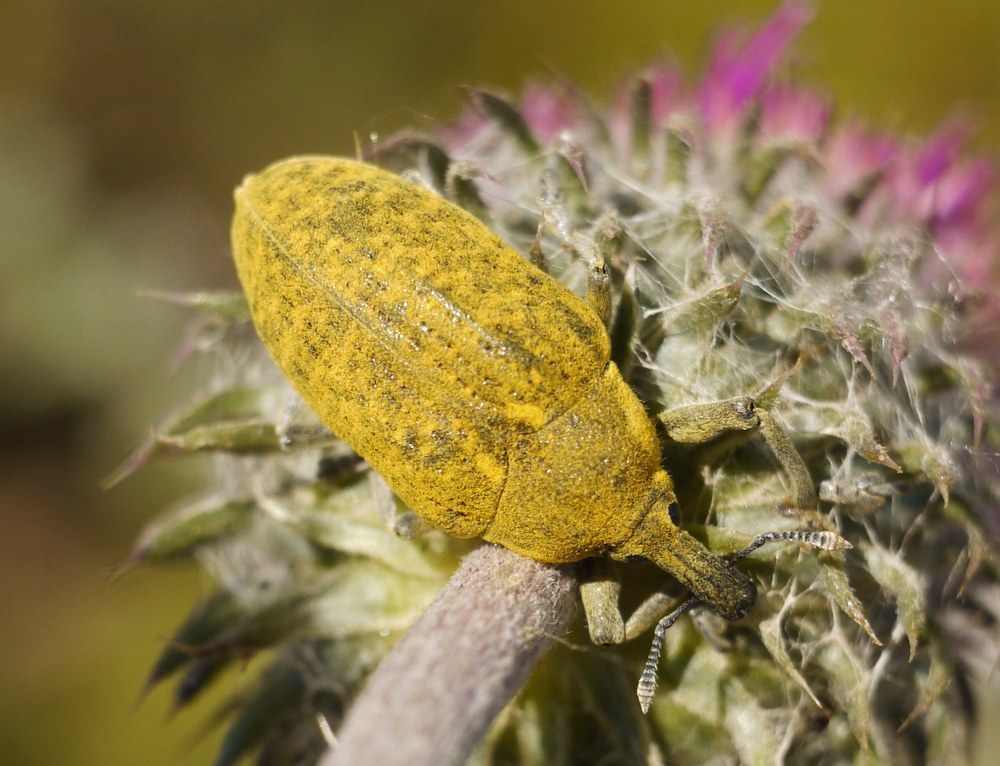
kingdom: Animalia
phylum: Arthropoda
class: Insecta
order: Coleoptera
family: Curculionidae
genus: Larinus
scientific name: Larinus latus
